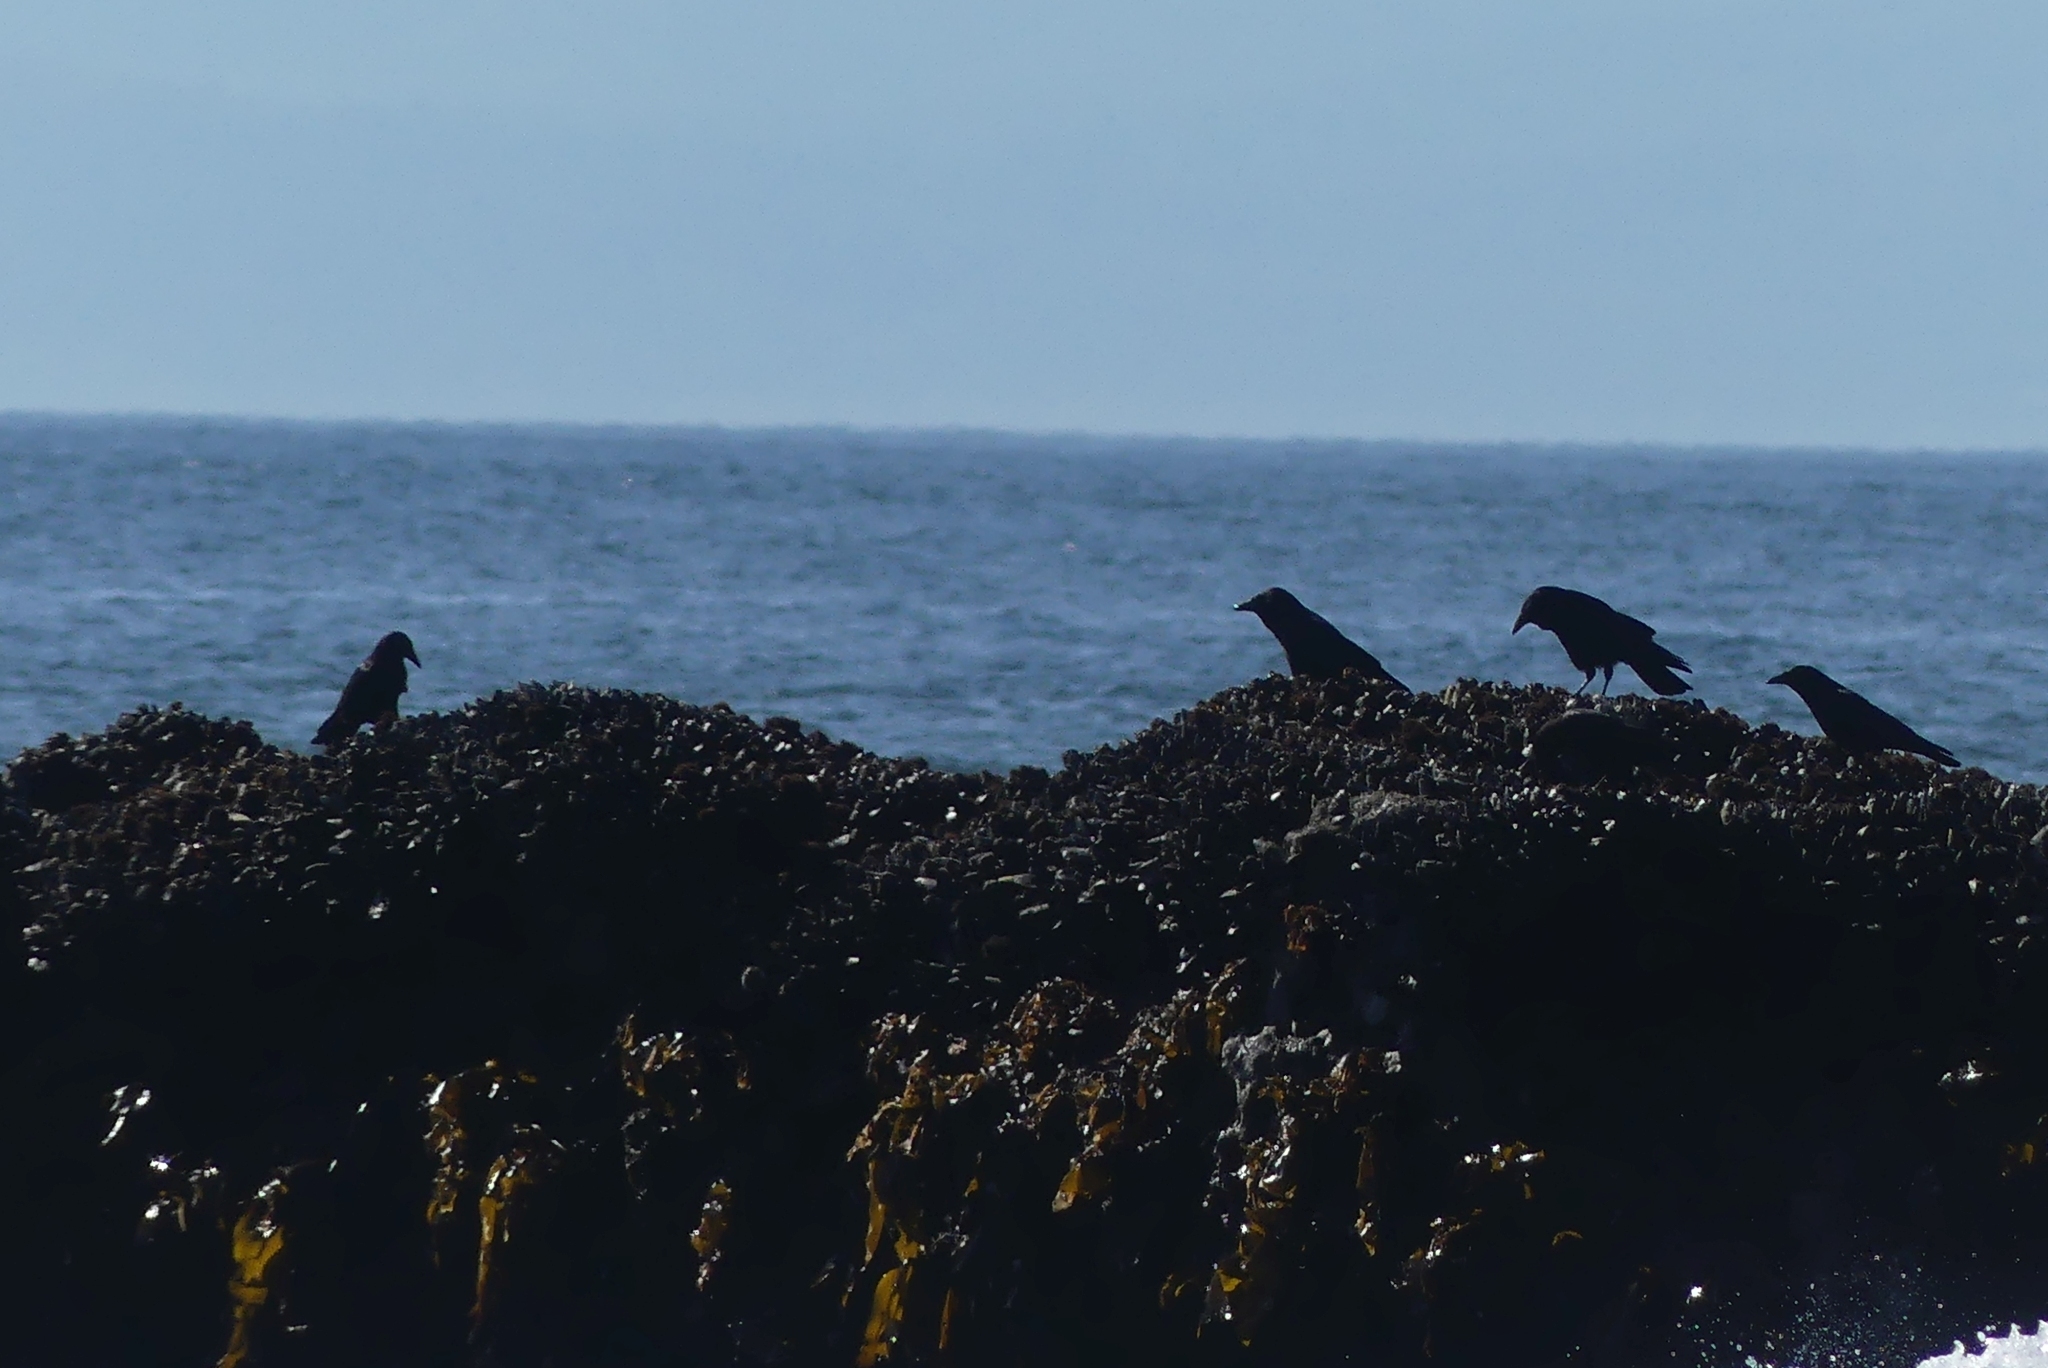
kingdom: Animalia
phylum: Chordata
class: Aves
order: Passeriformes
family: Corvidae
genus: Corvus
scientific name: Corvus brachyrhynchos
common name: American crow
